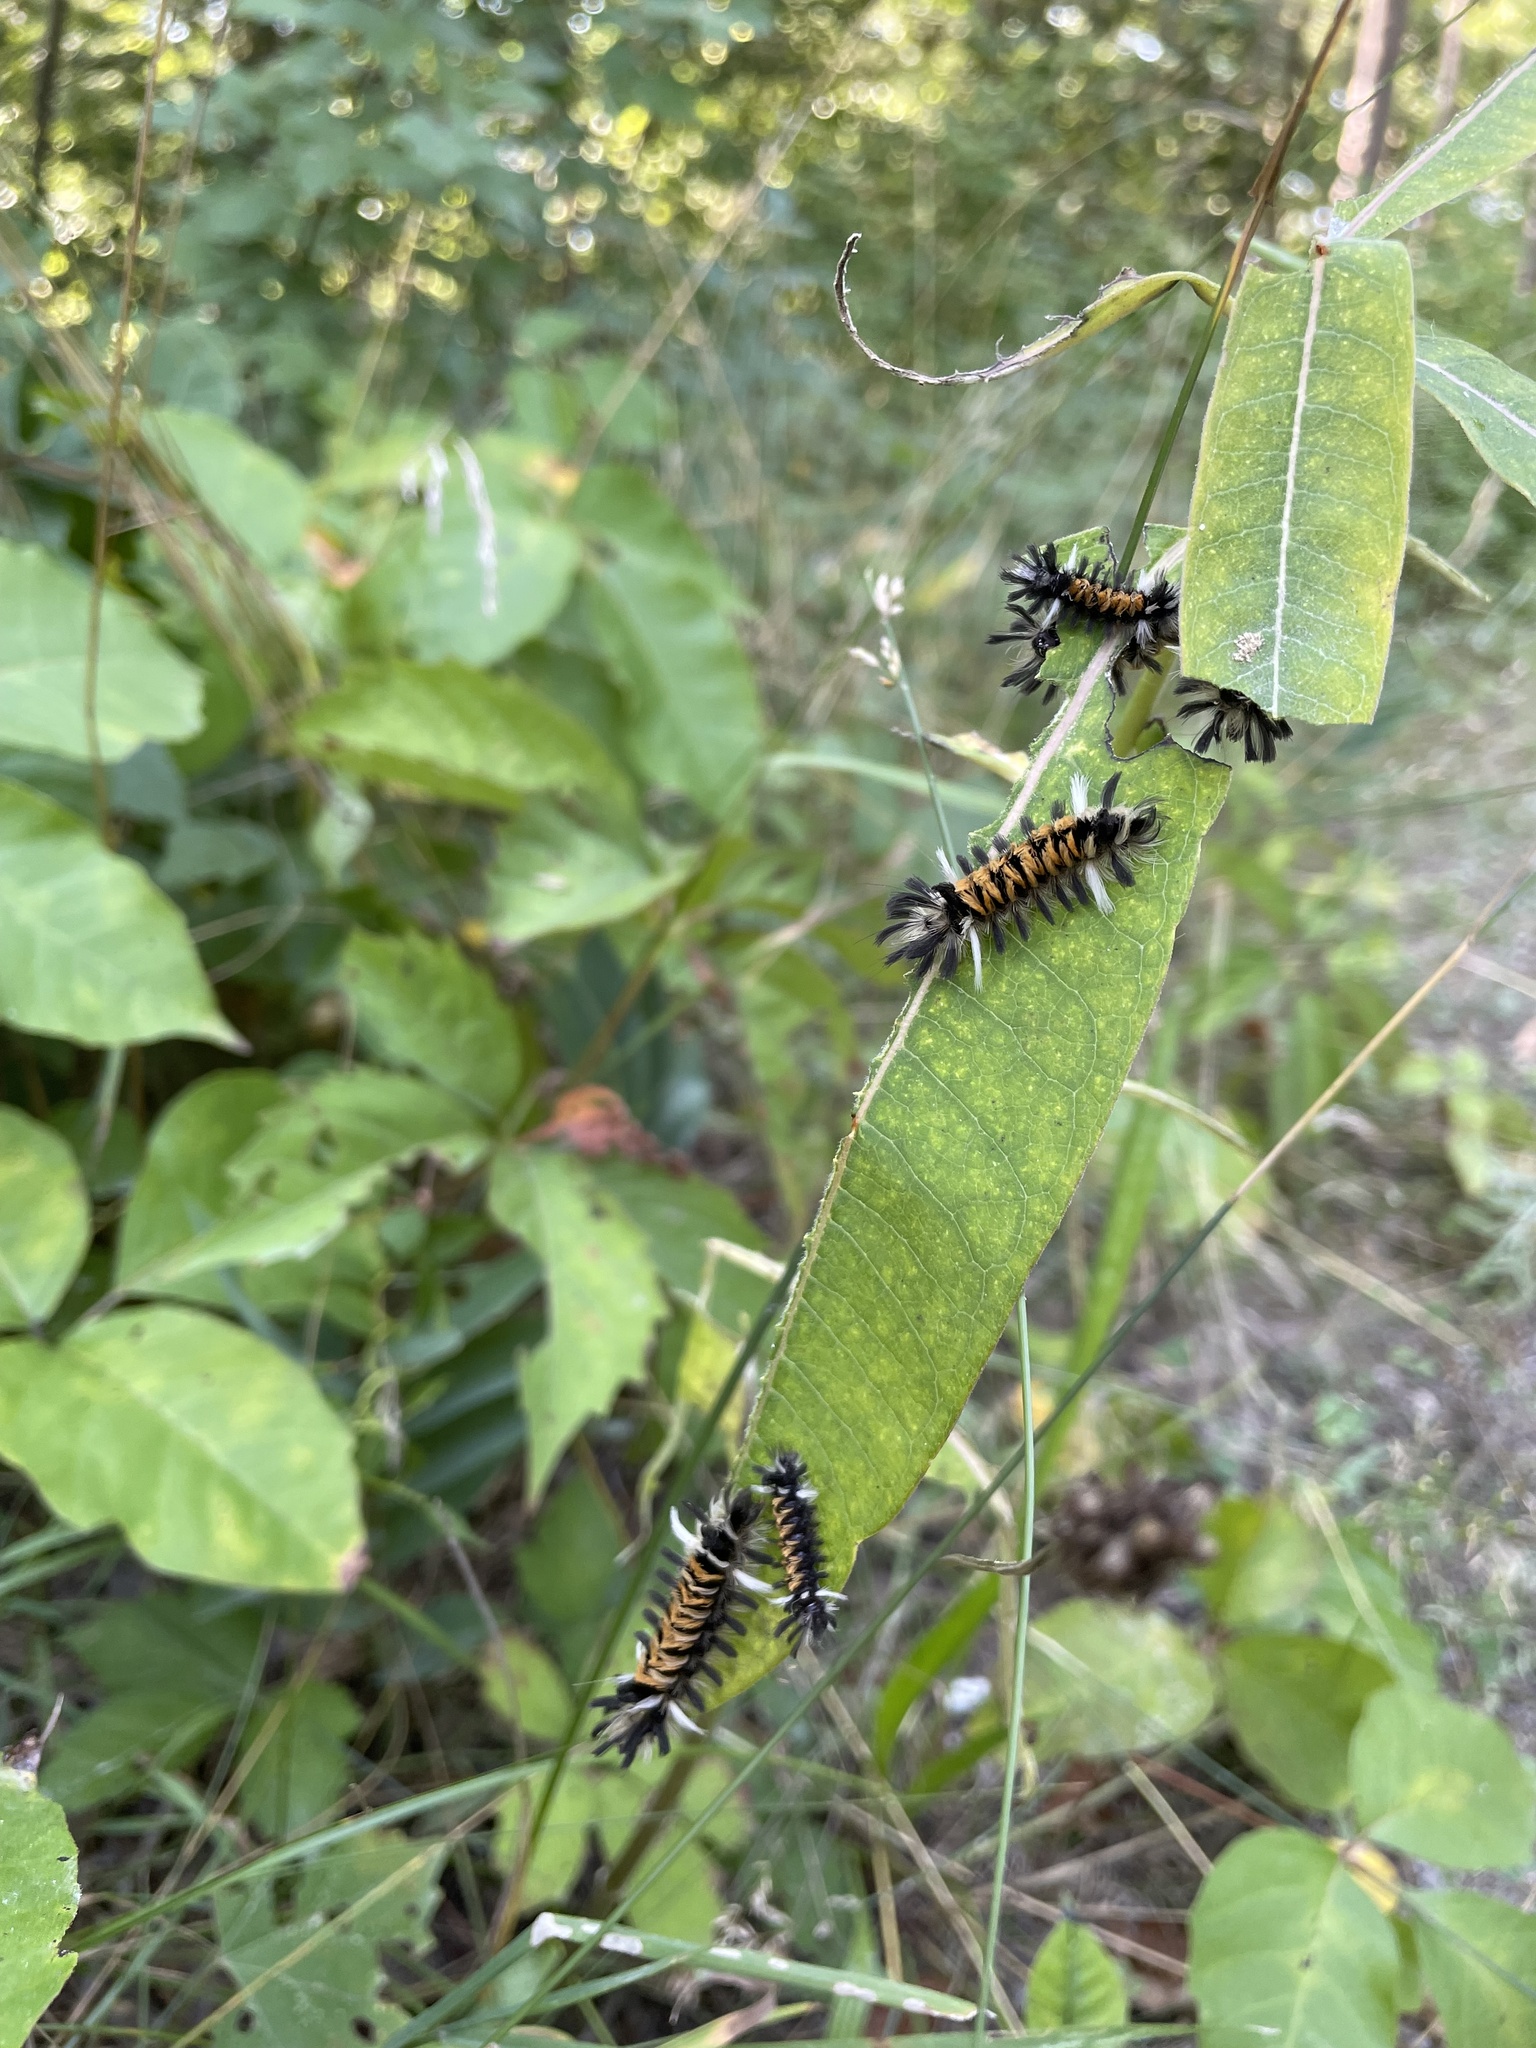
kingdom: Animalia
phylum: Arthropoda
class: Insecta
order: Lepidoptera
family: Erebidae
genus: Euchaetes
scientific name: Euchaetes egle
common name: Milkweed tussock moth
